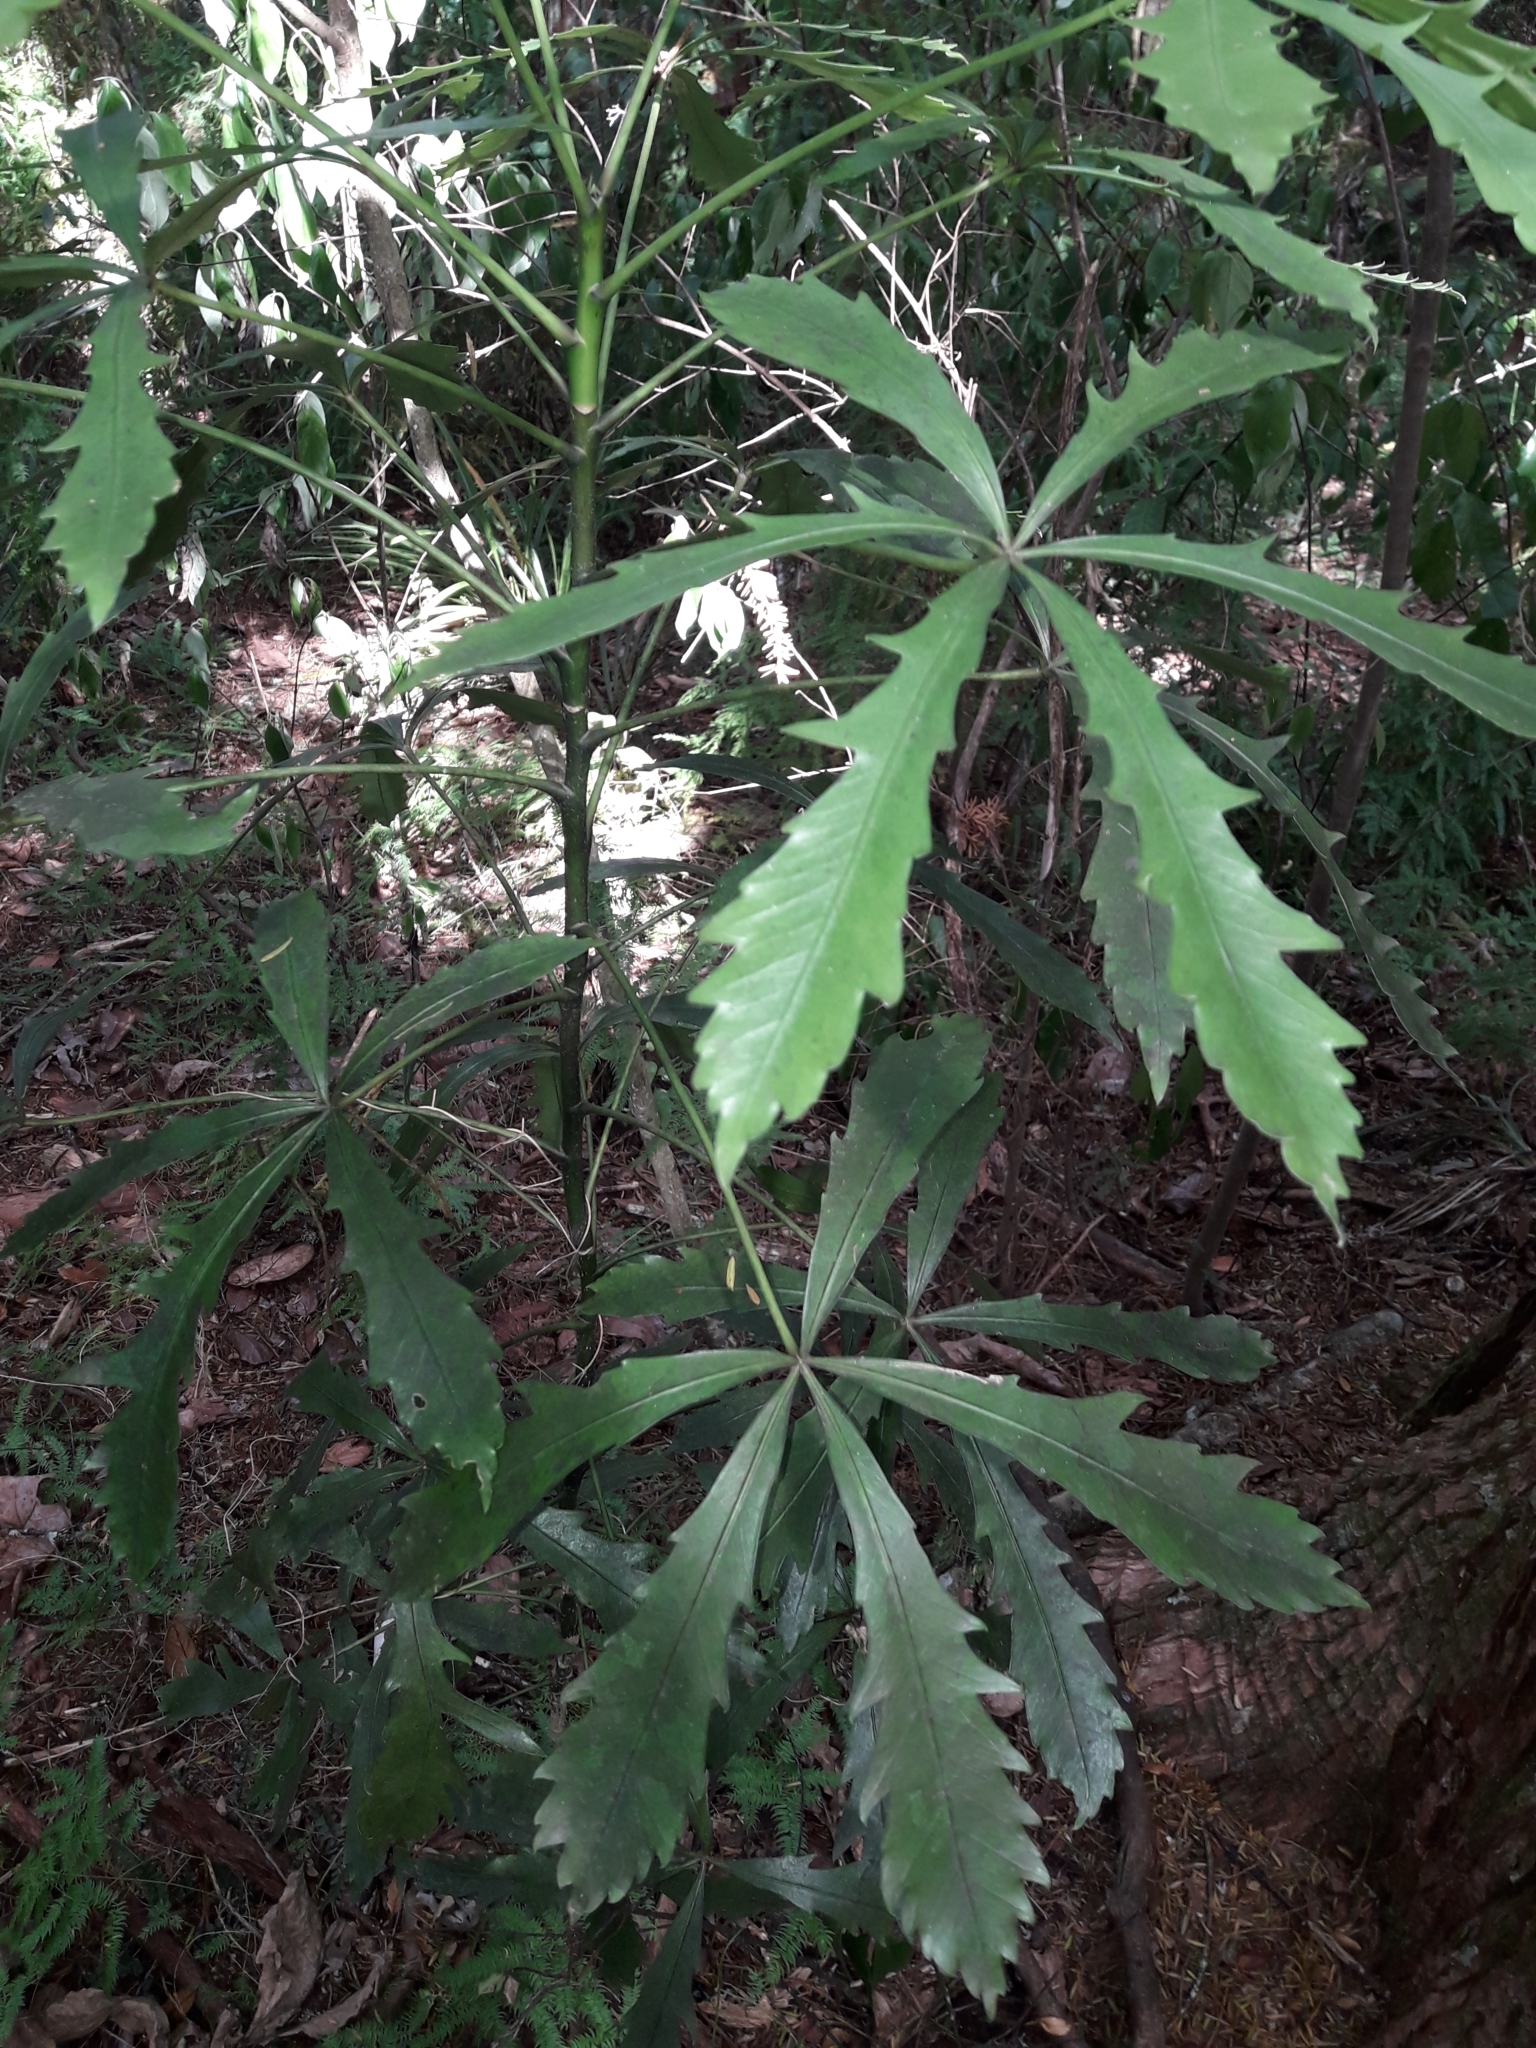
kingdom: Plantae
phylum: Tracheophyta
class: Magnoliopsida
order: Apiales
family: Araliaceae
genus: Pseudopanax
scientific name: Pseudopanax
